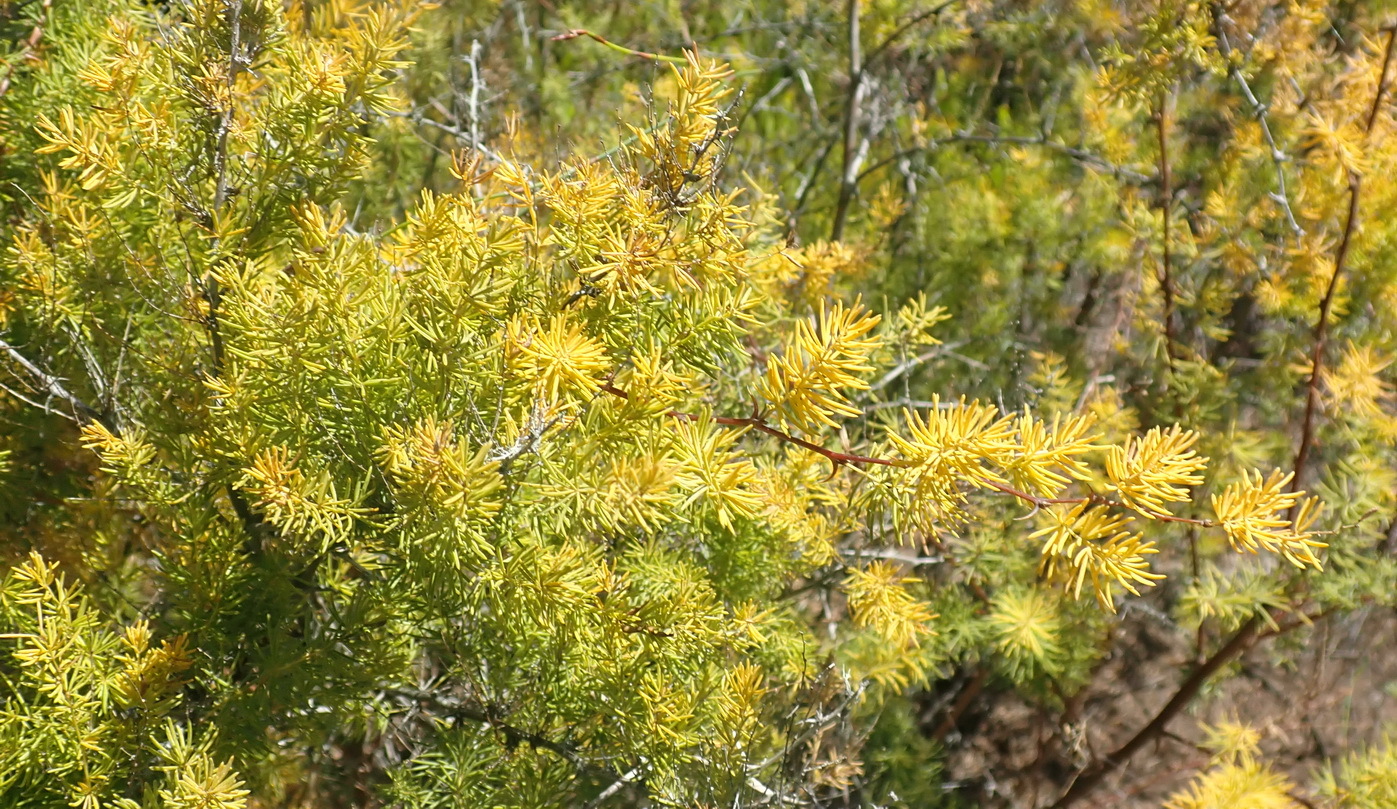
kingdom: Plantae
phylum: Tracheophyta
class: Liliopsida
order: Asparagales
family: Asparagaceae
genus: Asparagus
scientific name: Asparagus rubicundus
